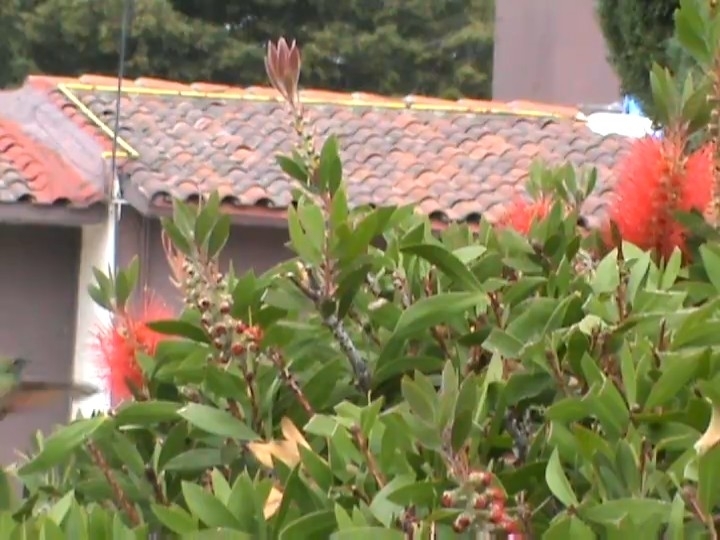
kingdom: Animalia
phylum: Chordata
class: Aves
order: Apodiformes
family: Trochilidae
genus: Saucerottia
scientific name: Saucerottia beryllina
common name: Berylline hummingbird
